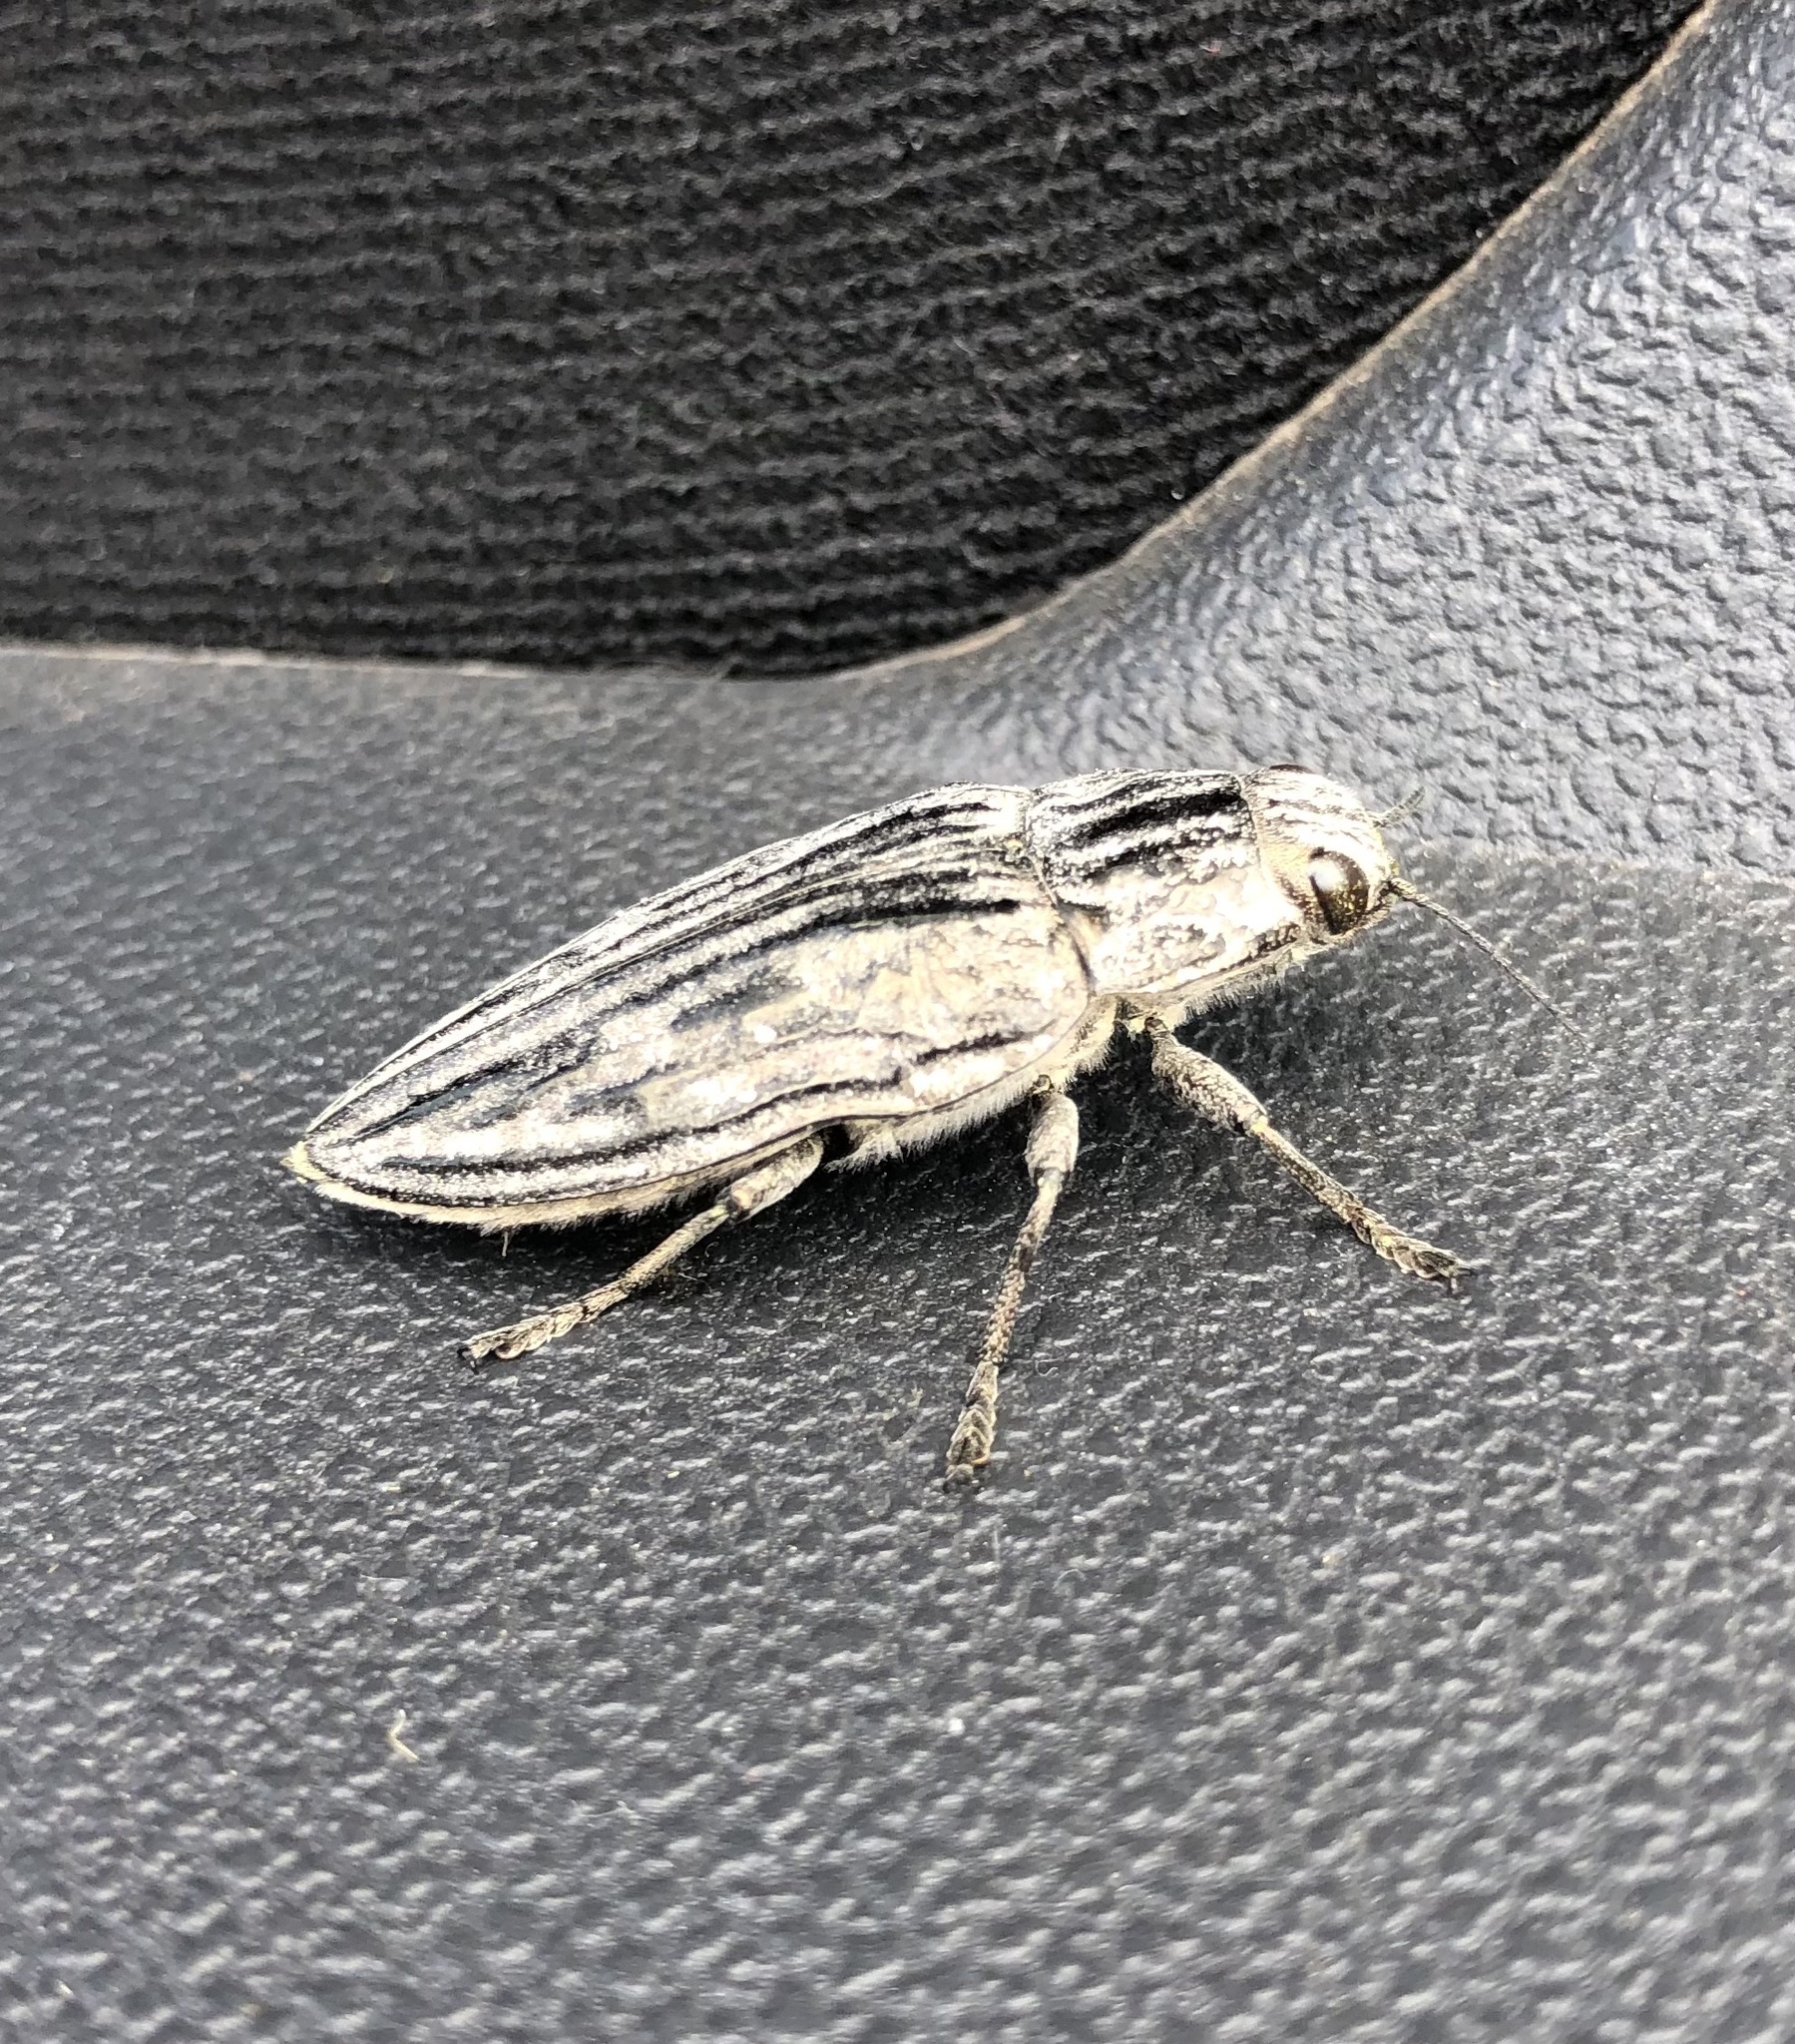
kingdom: Animalia
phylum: Arthropoda
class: Insecta
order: Coleoptera
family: Buprestidae
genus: Chalcophora
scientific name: Chalcophora mariana
